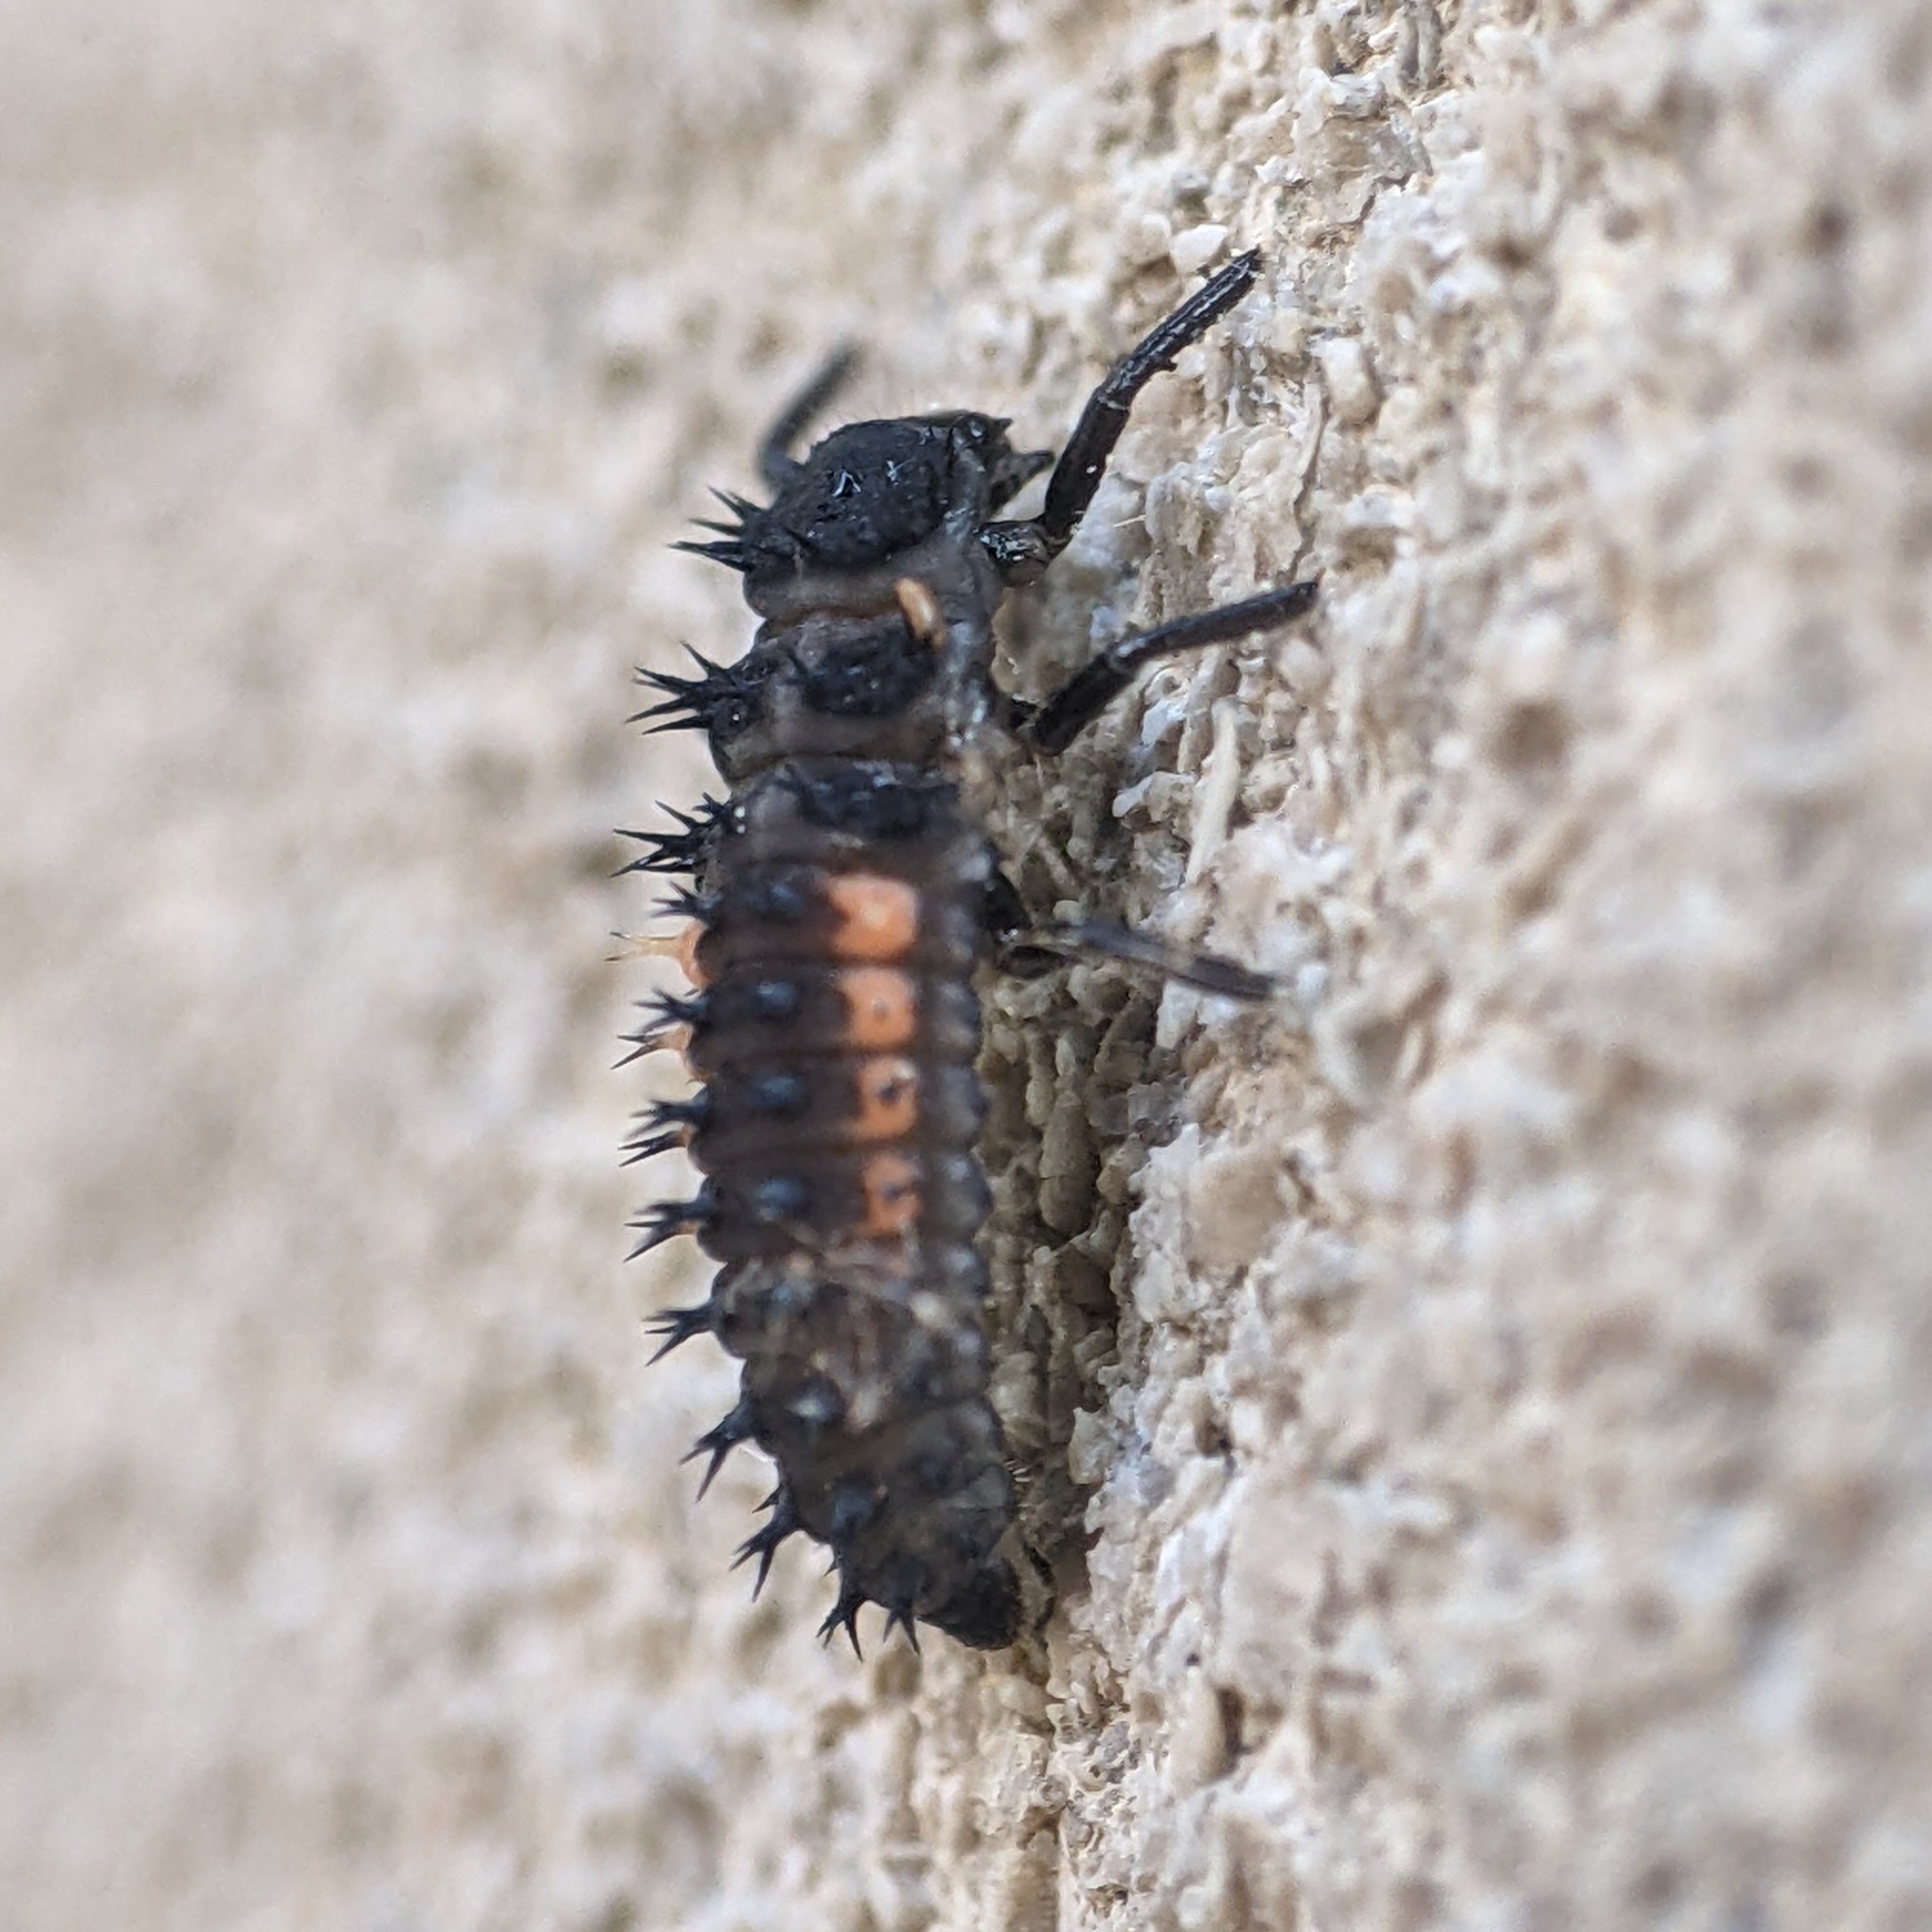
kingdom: Animalia
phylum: Arthropoda
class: Insecta
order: Coleoptera
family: Coccinellidae
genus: Harmonia
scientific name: Harmonia axyridis
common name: Harlequin ladybird
